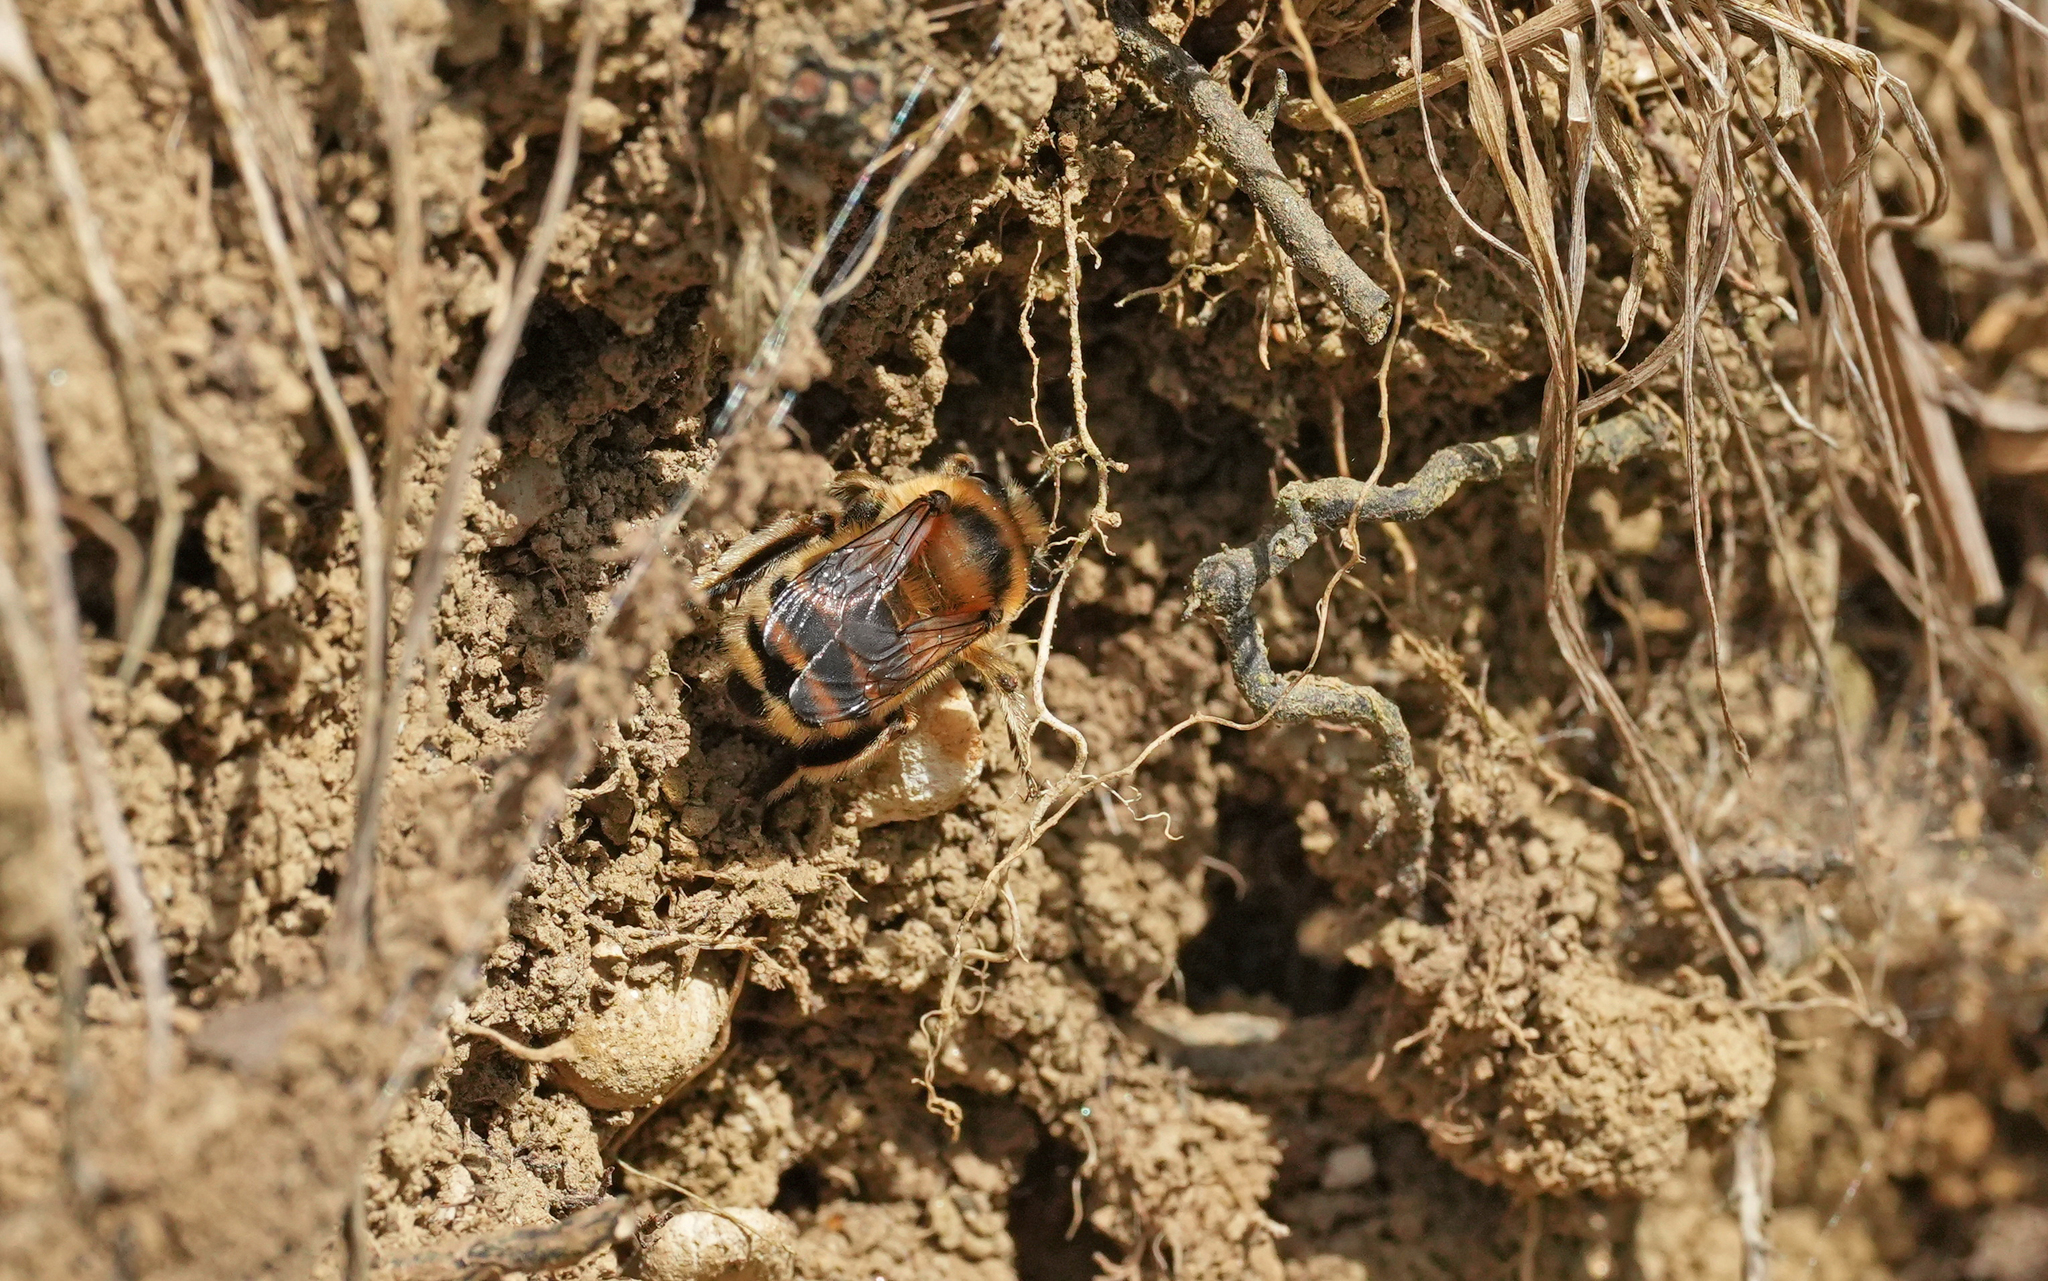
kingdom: Animalia
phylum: Arthropoda
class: Insecta
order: Hymenoptera
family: Apidae
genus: Anthophora
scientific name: Anthophora aestivalis
